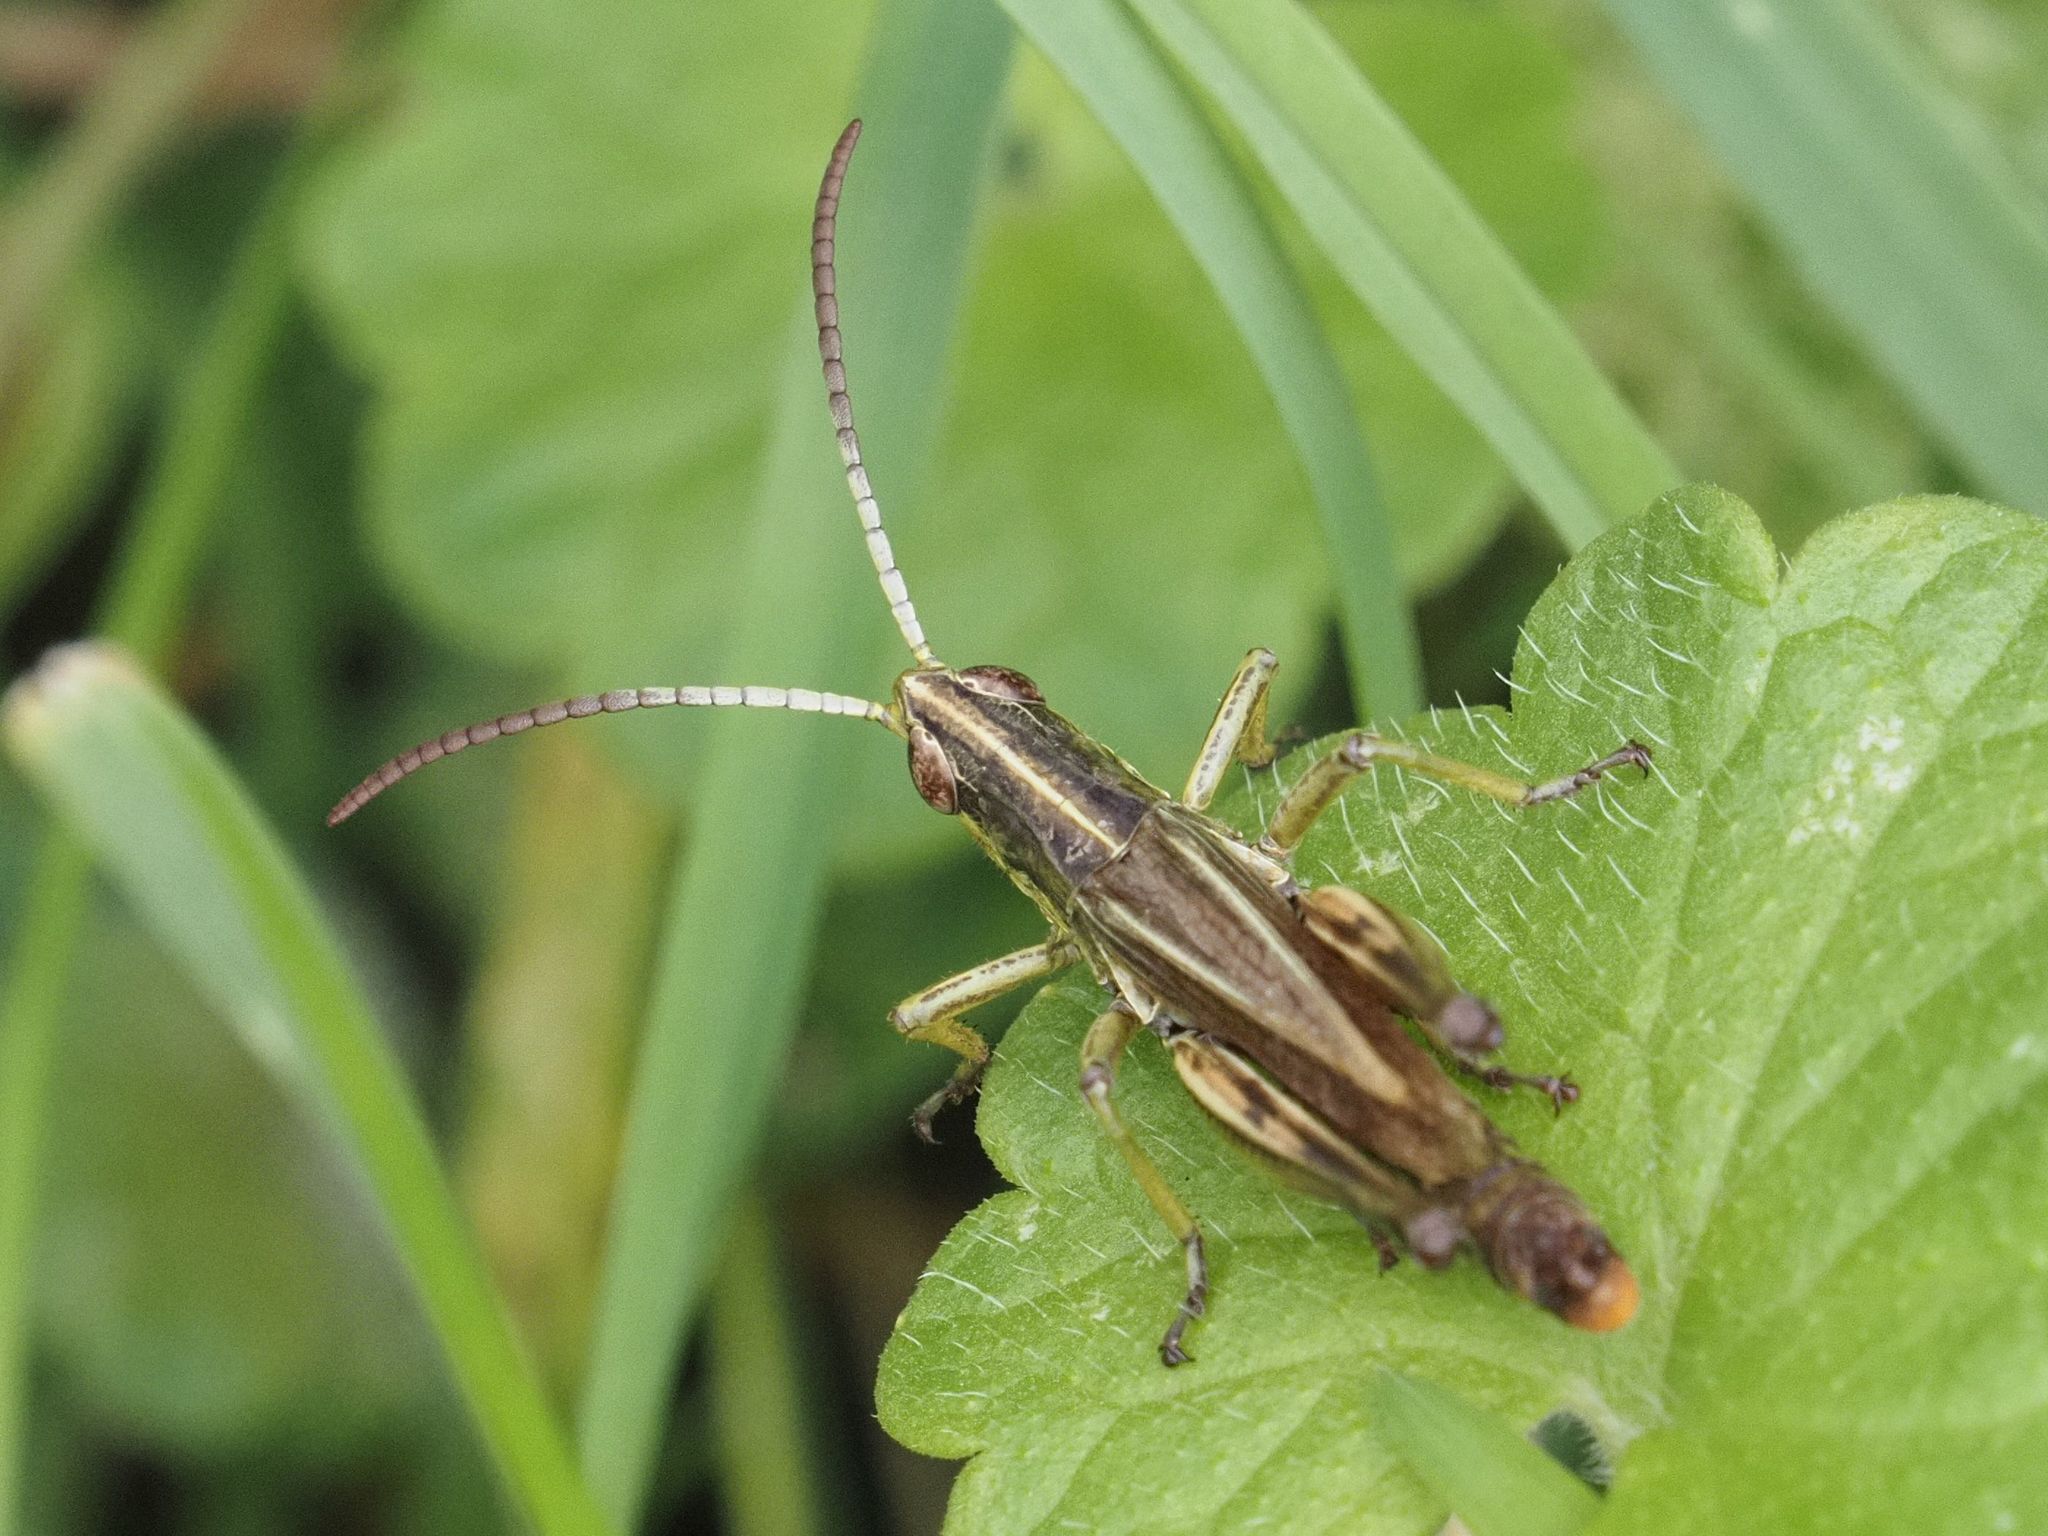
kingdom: Animalia
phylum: Arthropoda
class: Insecta
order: Orthoptera
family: Acrididae
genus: Pseudochorthippus
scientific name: Pseudochorthippus parallelus
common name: Meadow grasshopper
